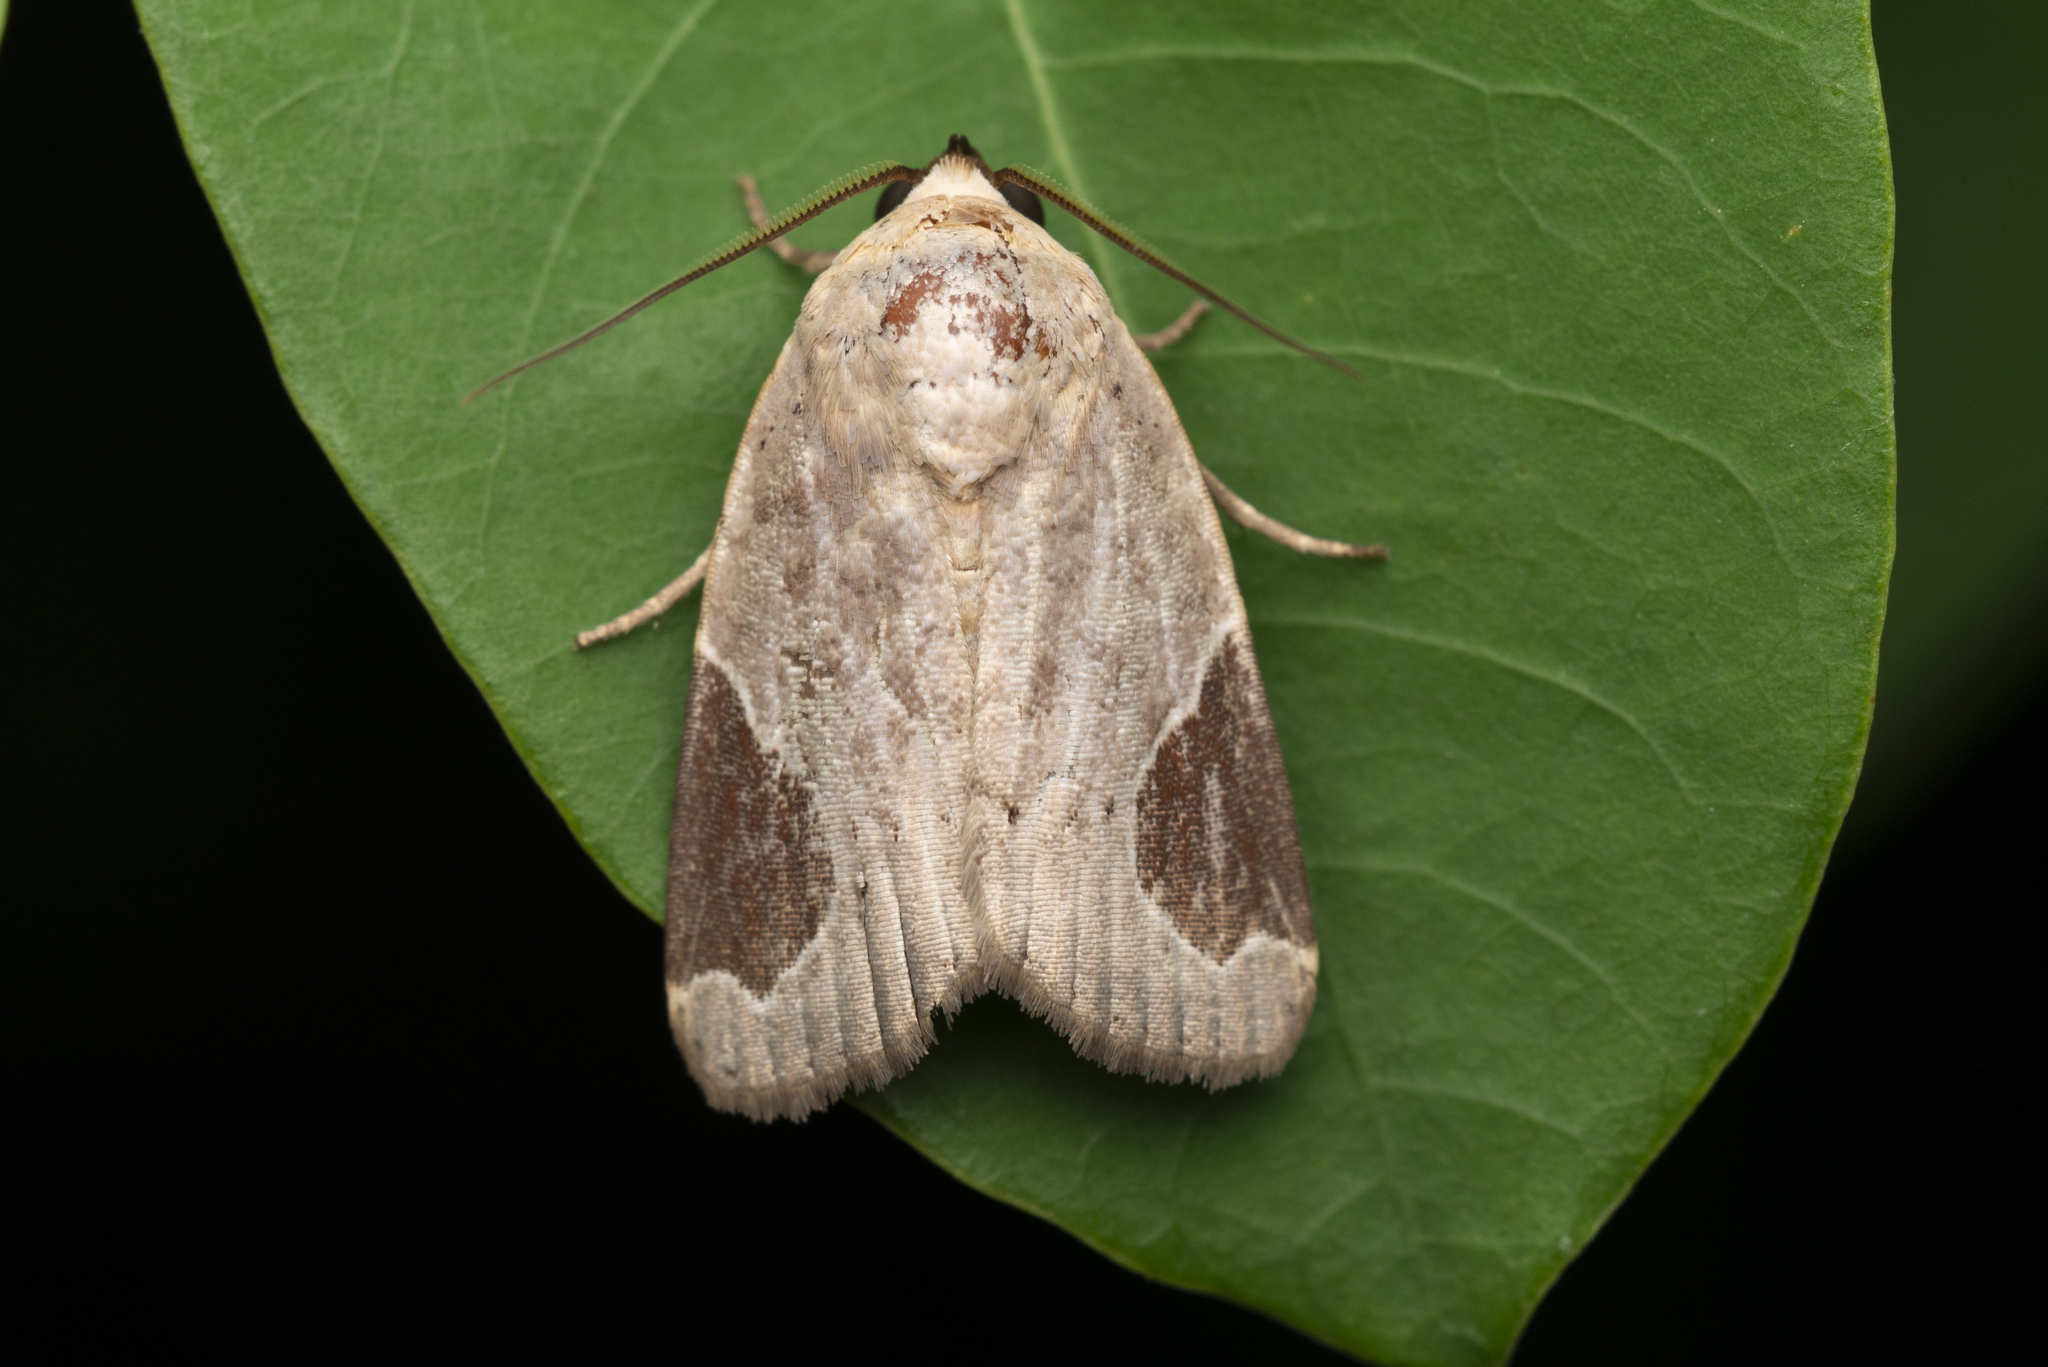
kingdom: Animalia
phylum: Arthropoda
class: Insecta
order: Lepidoptera
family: Noctuidae
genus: Dyrzela
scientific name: Dyrzela plagiata
